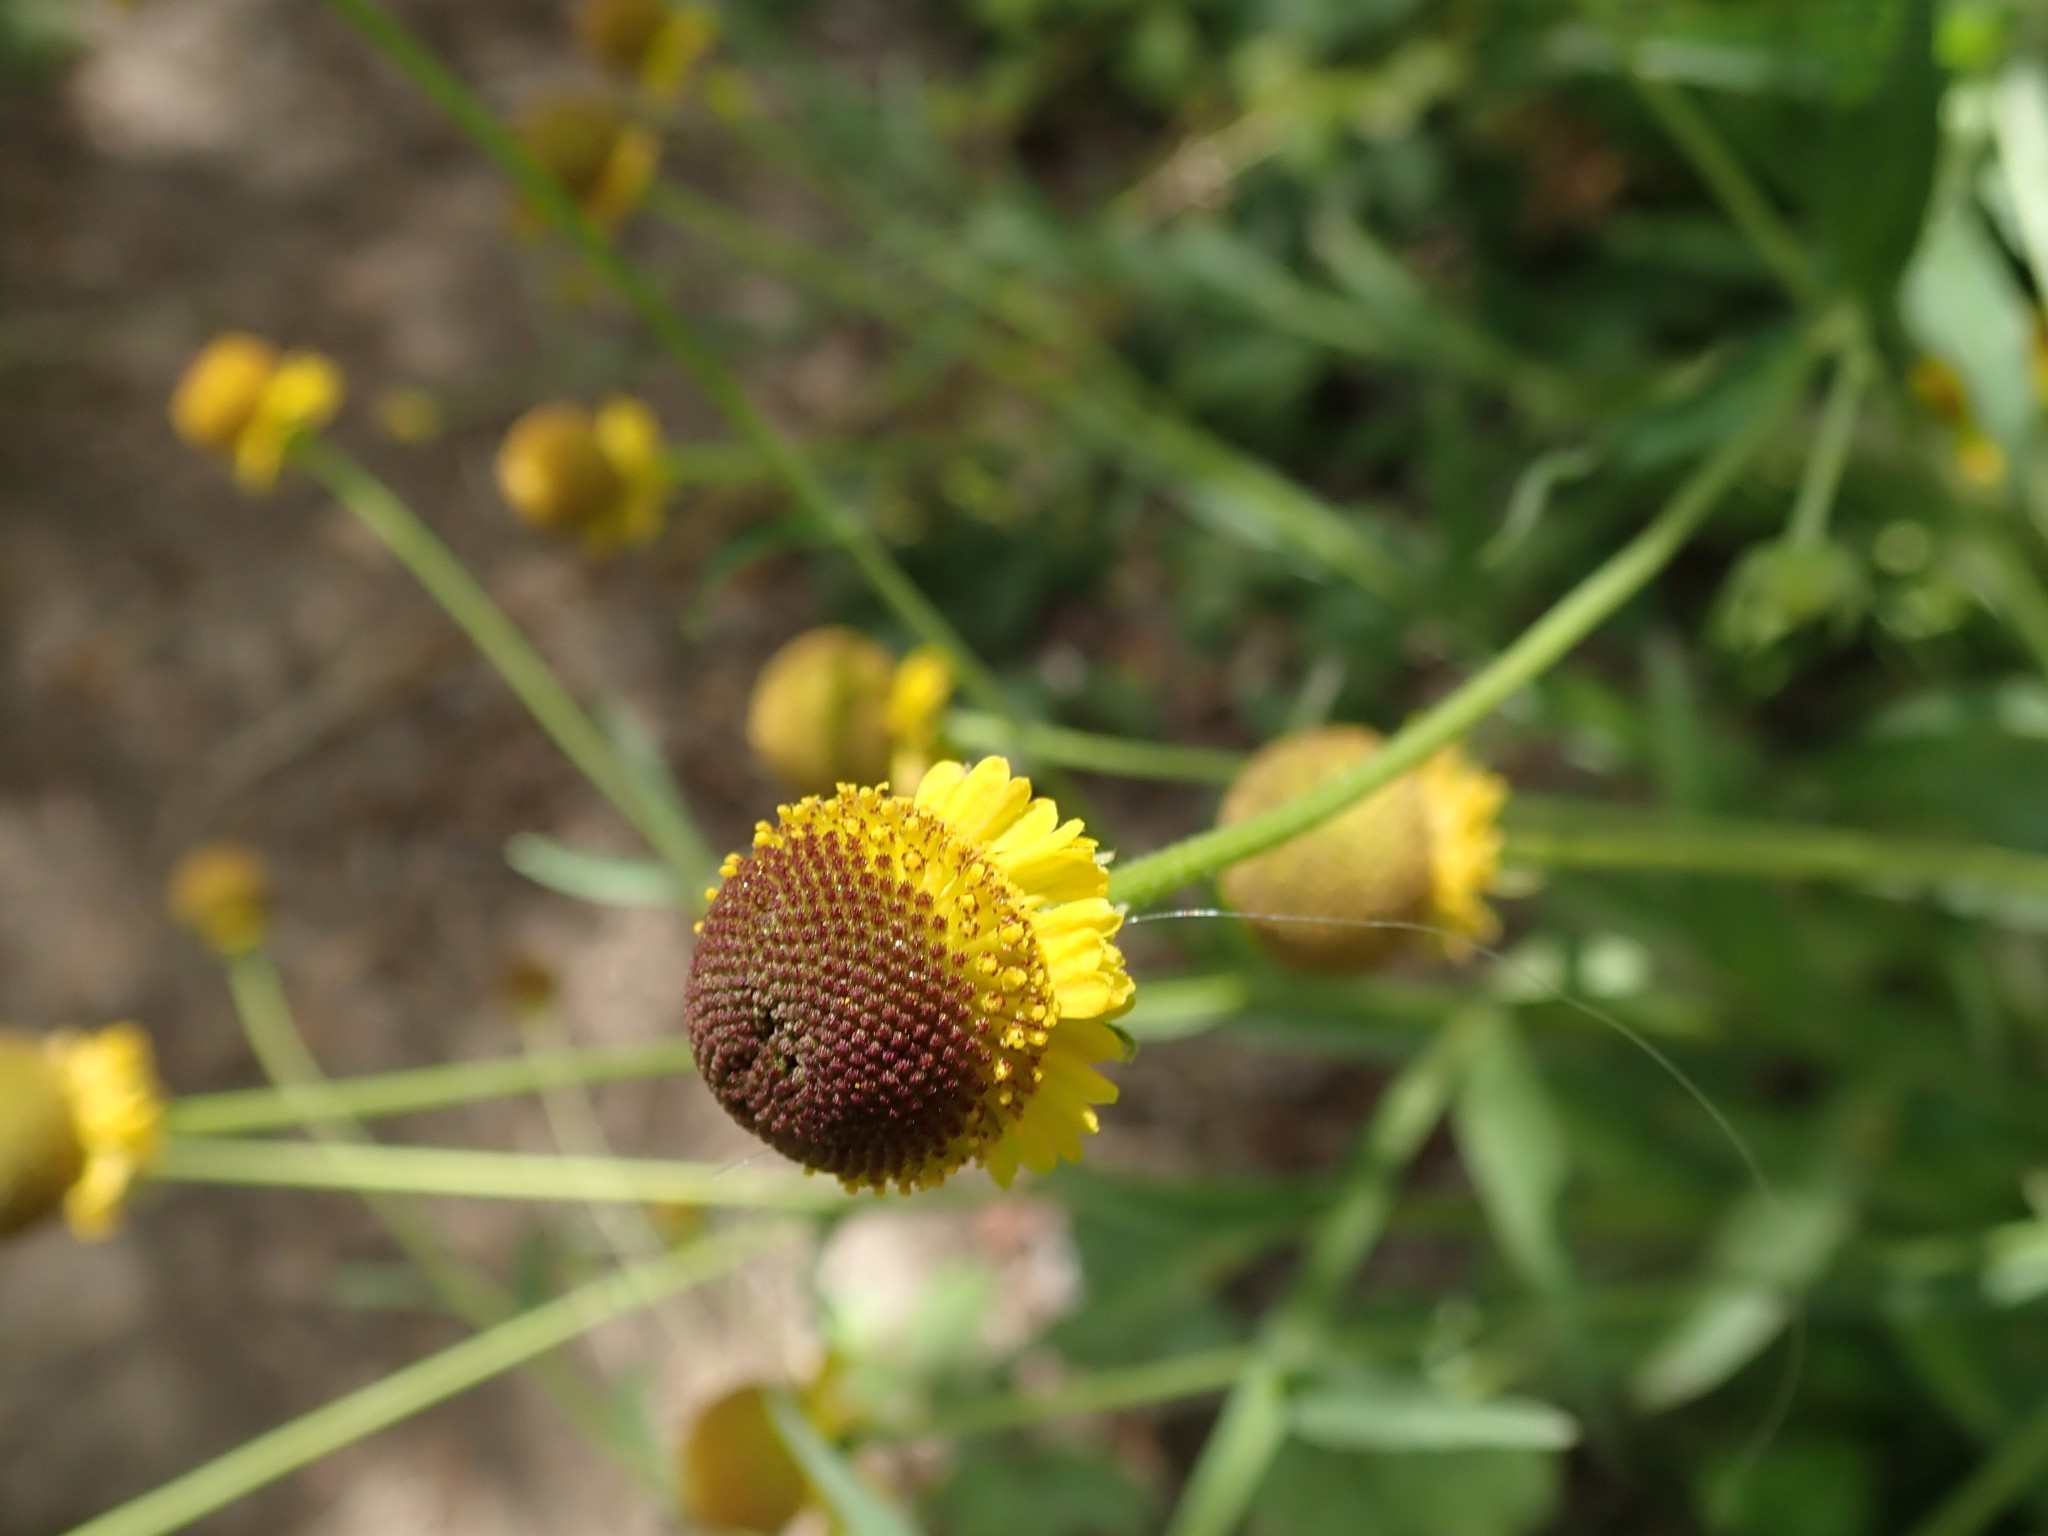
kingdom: Plantae
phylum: Tracheophyta
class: Magnoliopsida
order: Asterales
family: Asteraceae
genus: Helenium
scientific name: Helenium puberulum
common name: Sneezewort
